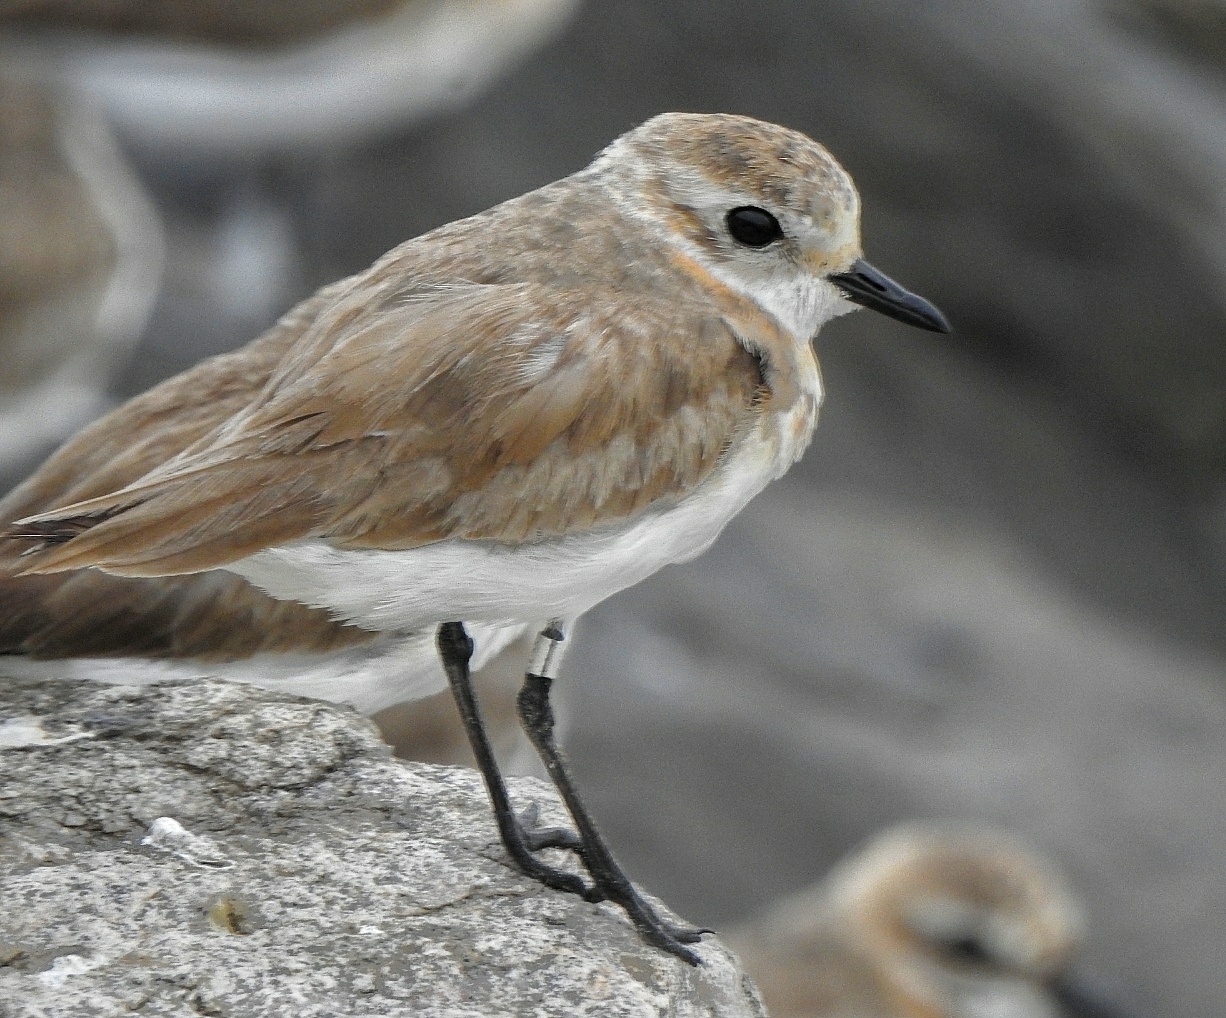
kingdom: Animalia
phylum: Chordata
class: Aves
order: Charadriiformes
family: Charadriidae
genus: Anarhynchus
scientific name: Anarhynchus
